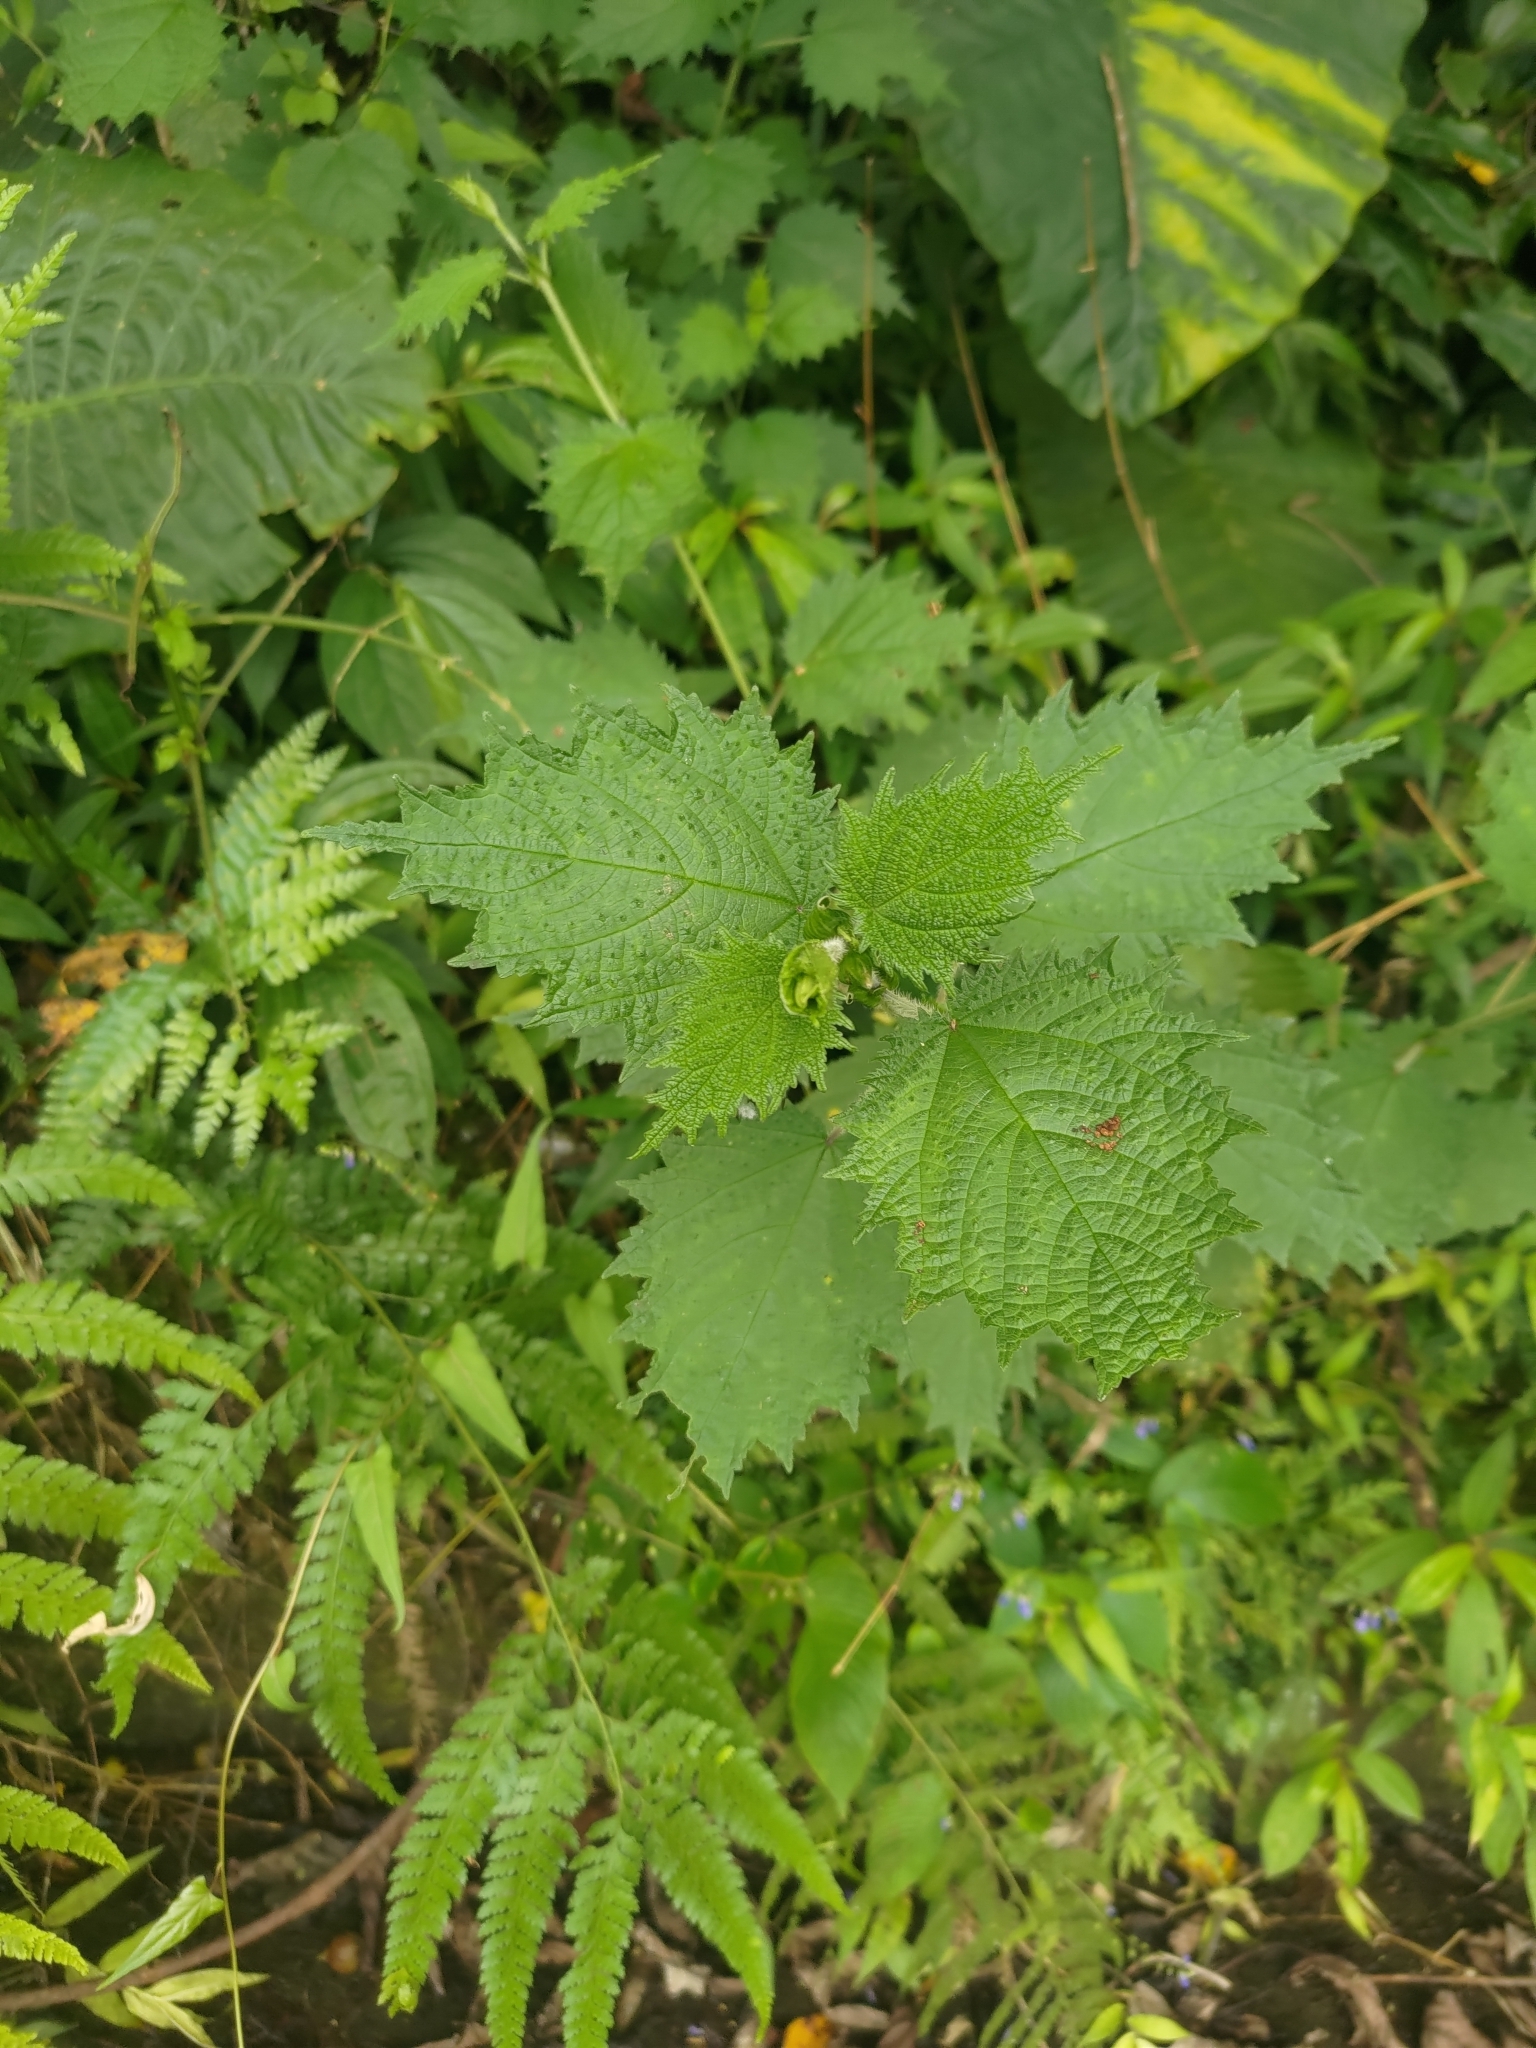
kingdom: Plantae
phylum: Tracheophyta
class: Magnoliopsida
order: Rosales
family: Urticaceae
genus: Urtica
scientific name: Urtica thunbergiana
